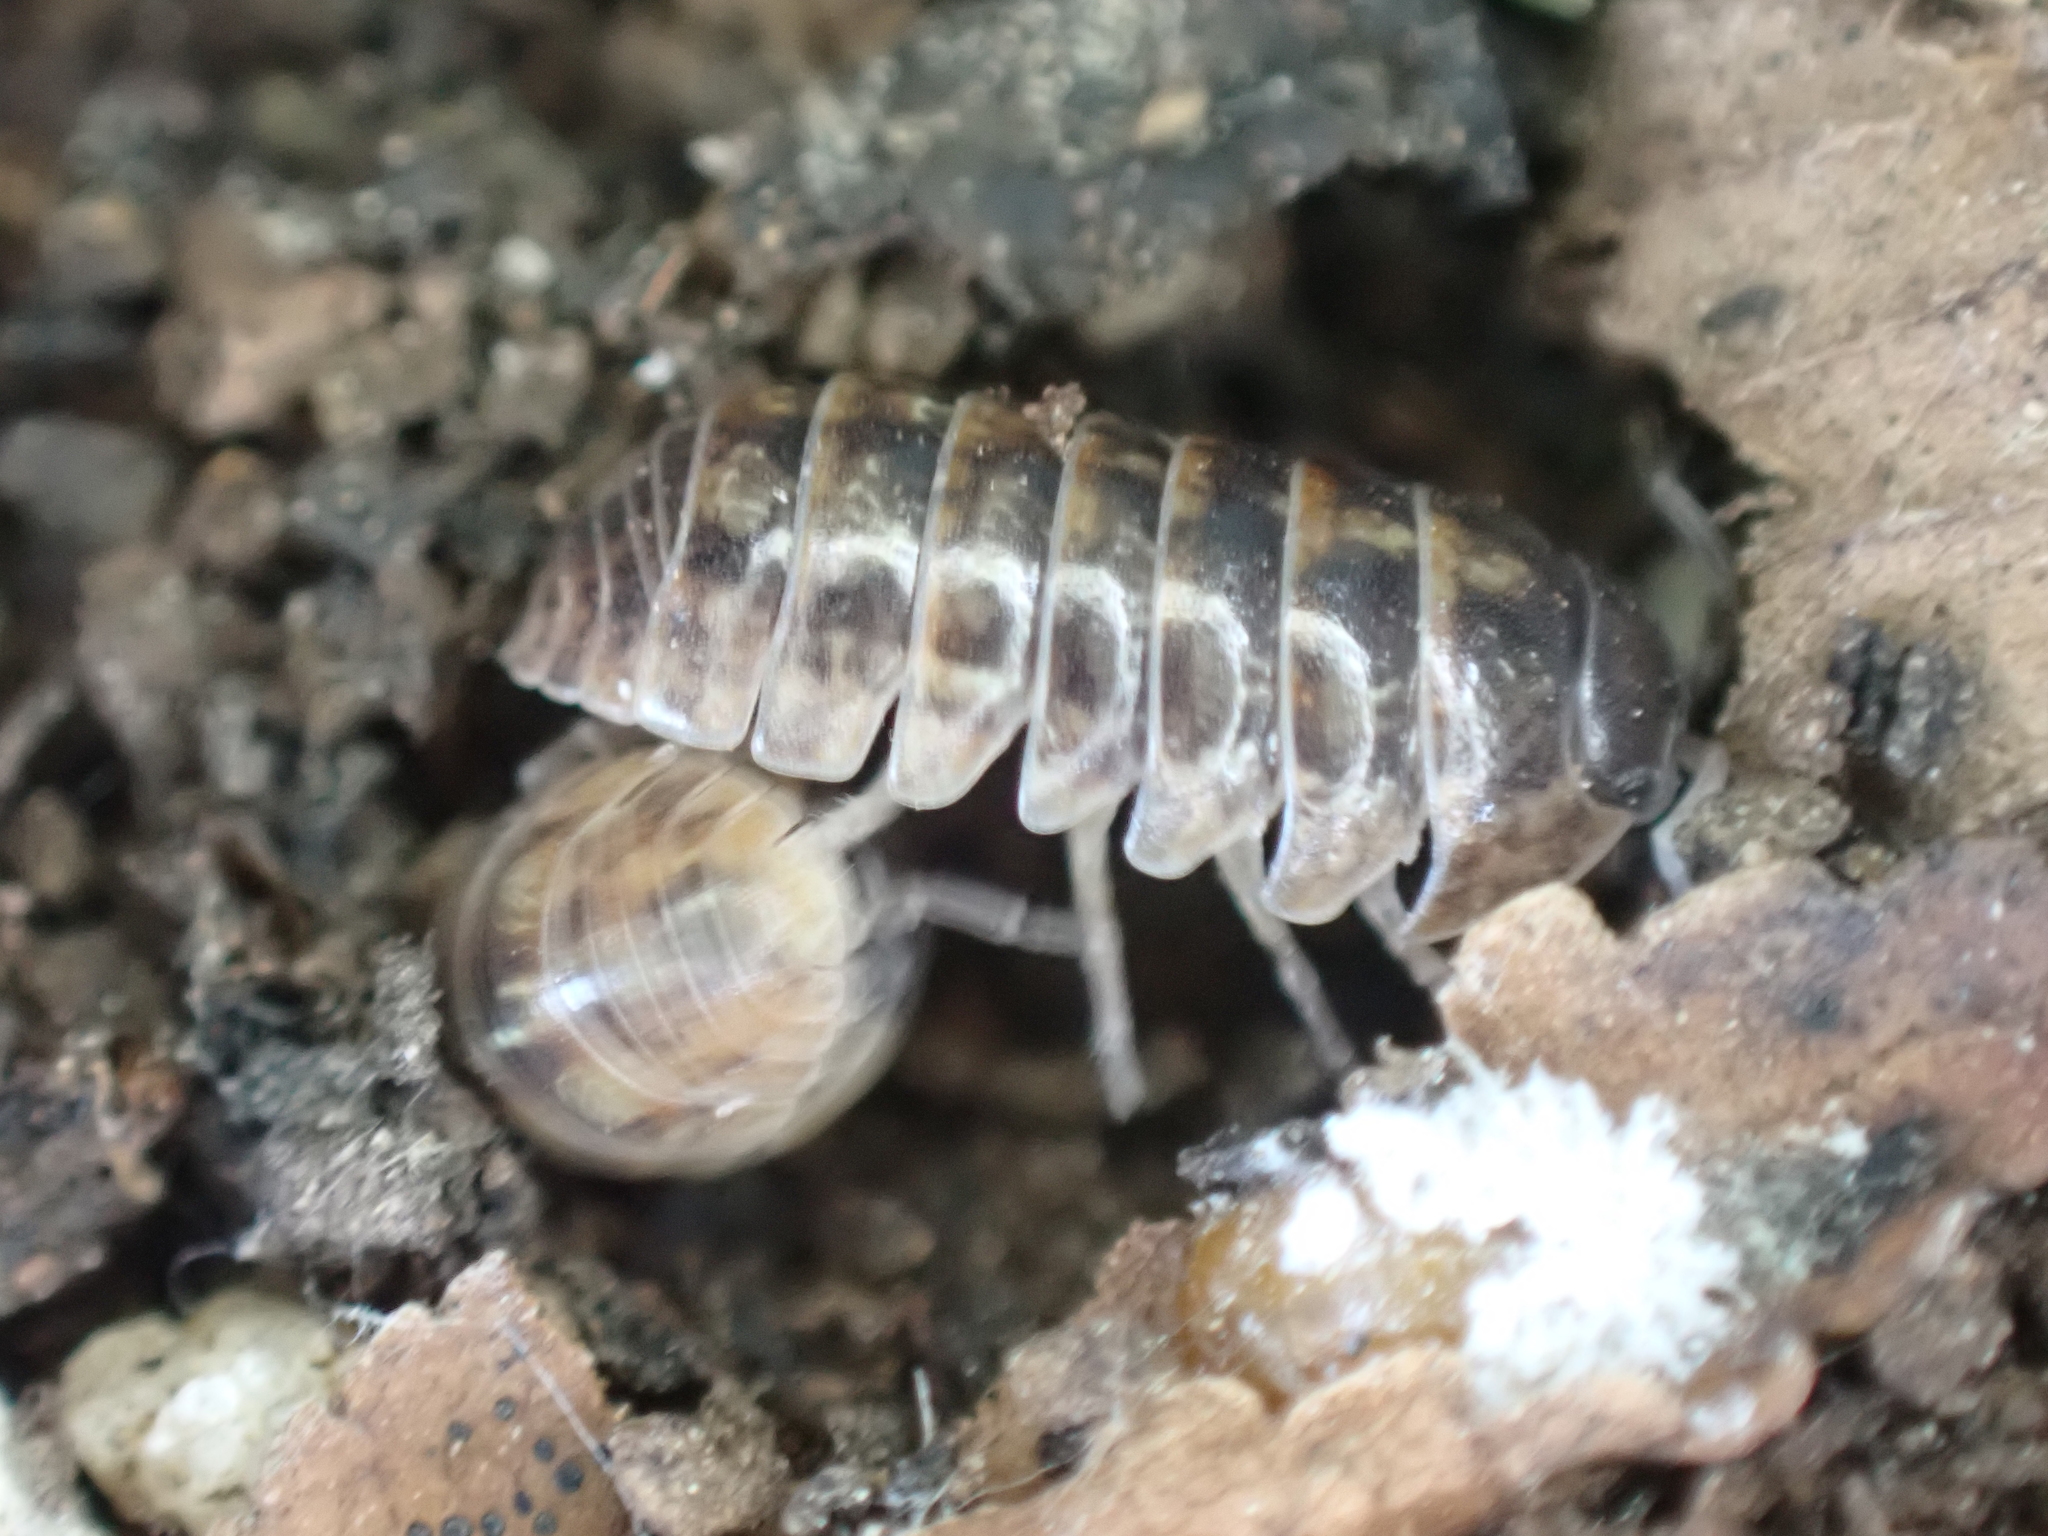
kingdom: Animalia
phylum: Arthropoda
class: Malacostraca
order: Isopoda
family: Armadillidiidae
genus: Armadillidium
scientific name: Armadillidium vulgare
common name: Common pill woodlouse
